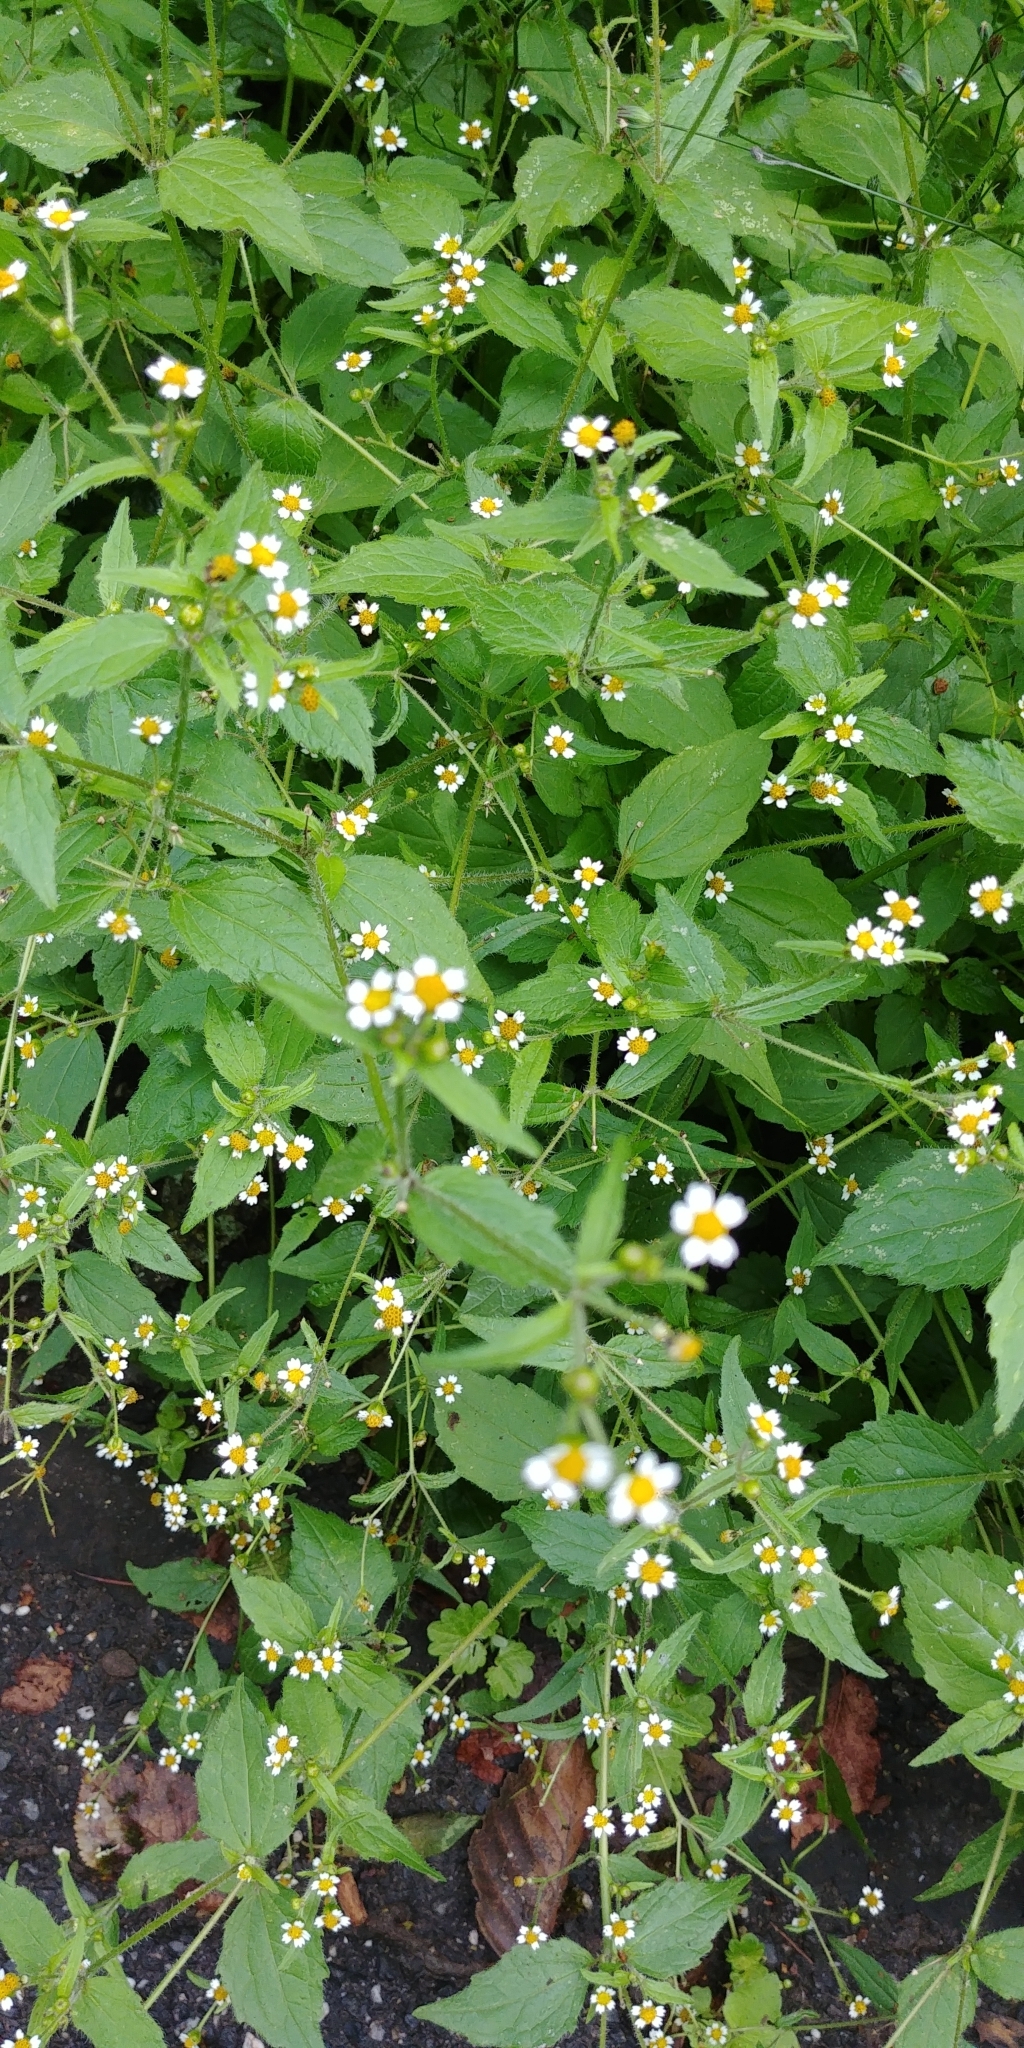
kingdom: Plantae
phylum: Tracheophyta
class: Magnoliopsida
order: Asterales
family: Asteraceae
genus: Galinsoga
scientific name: Galinsoga quadriradiata
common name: Shaggy soldier
